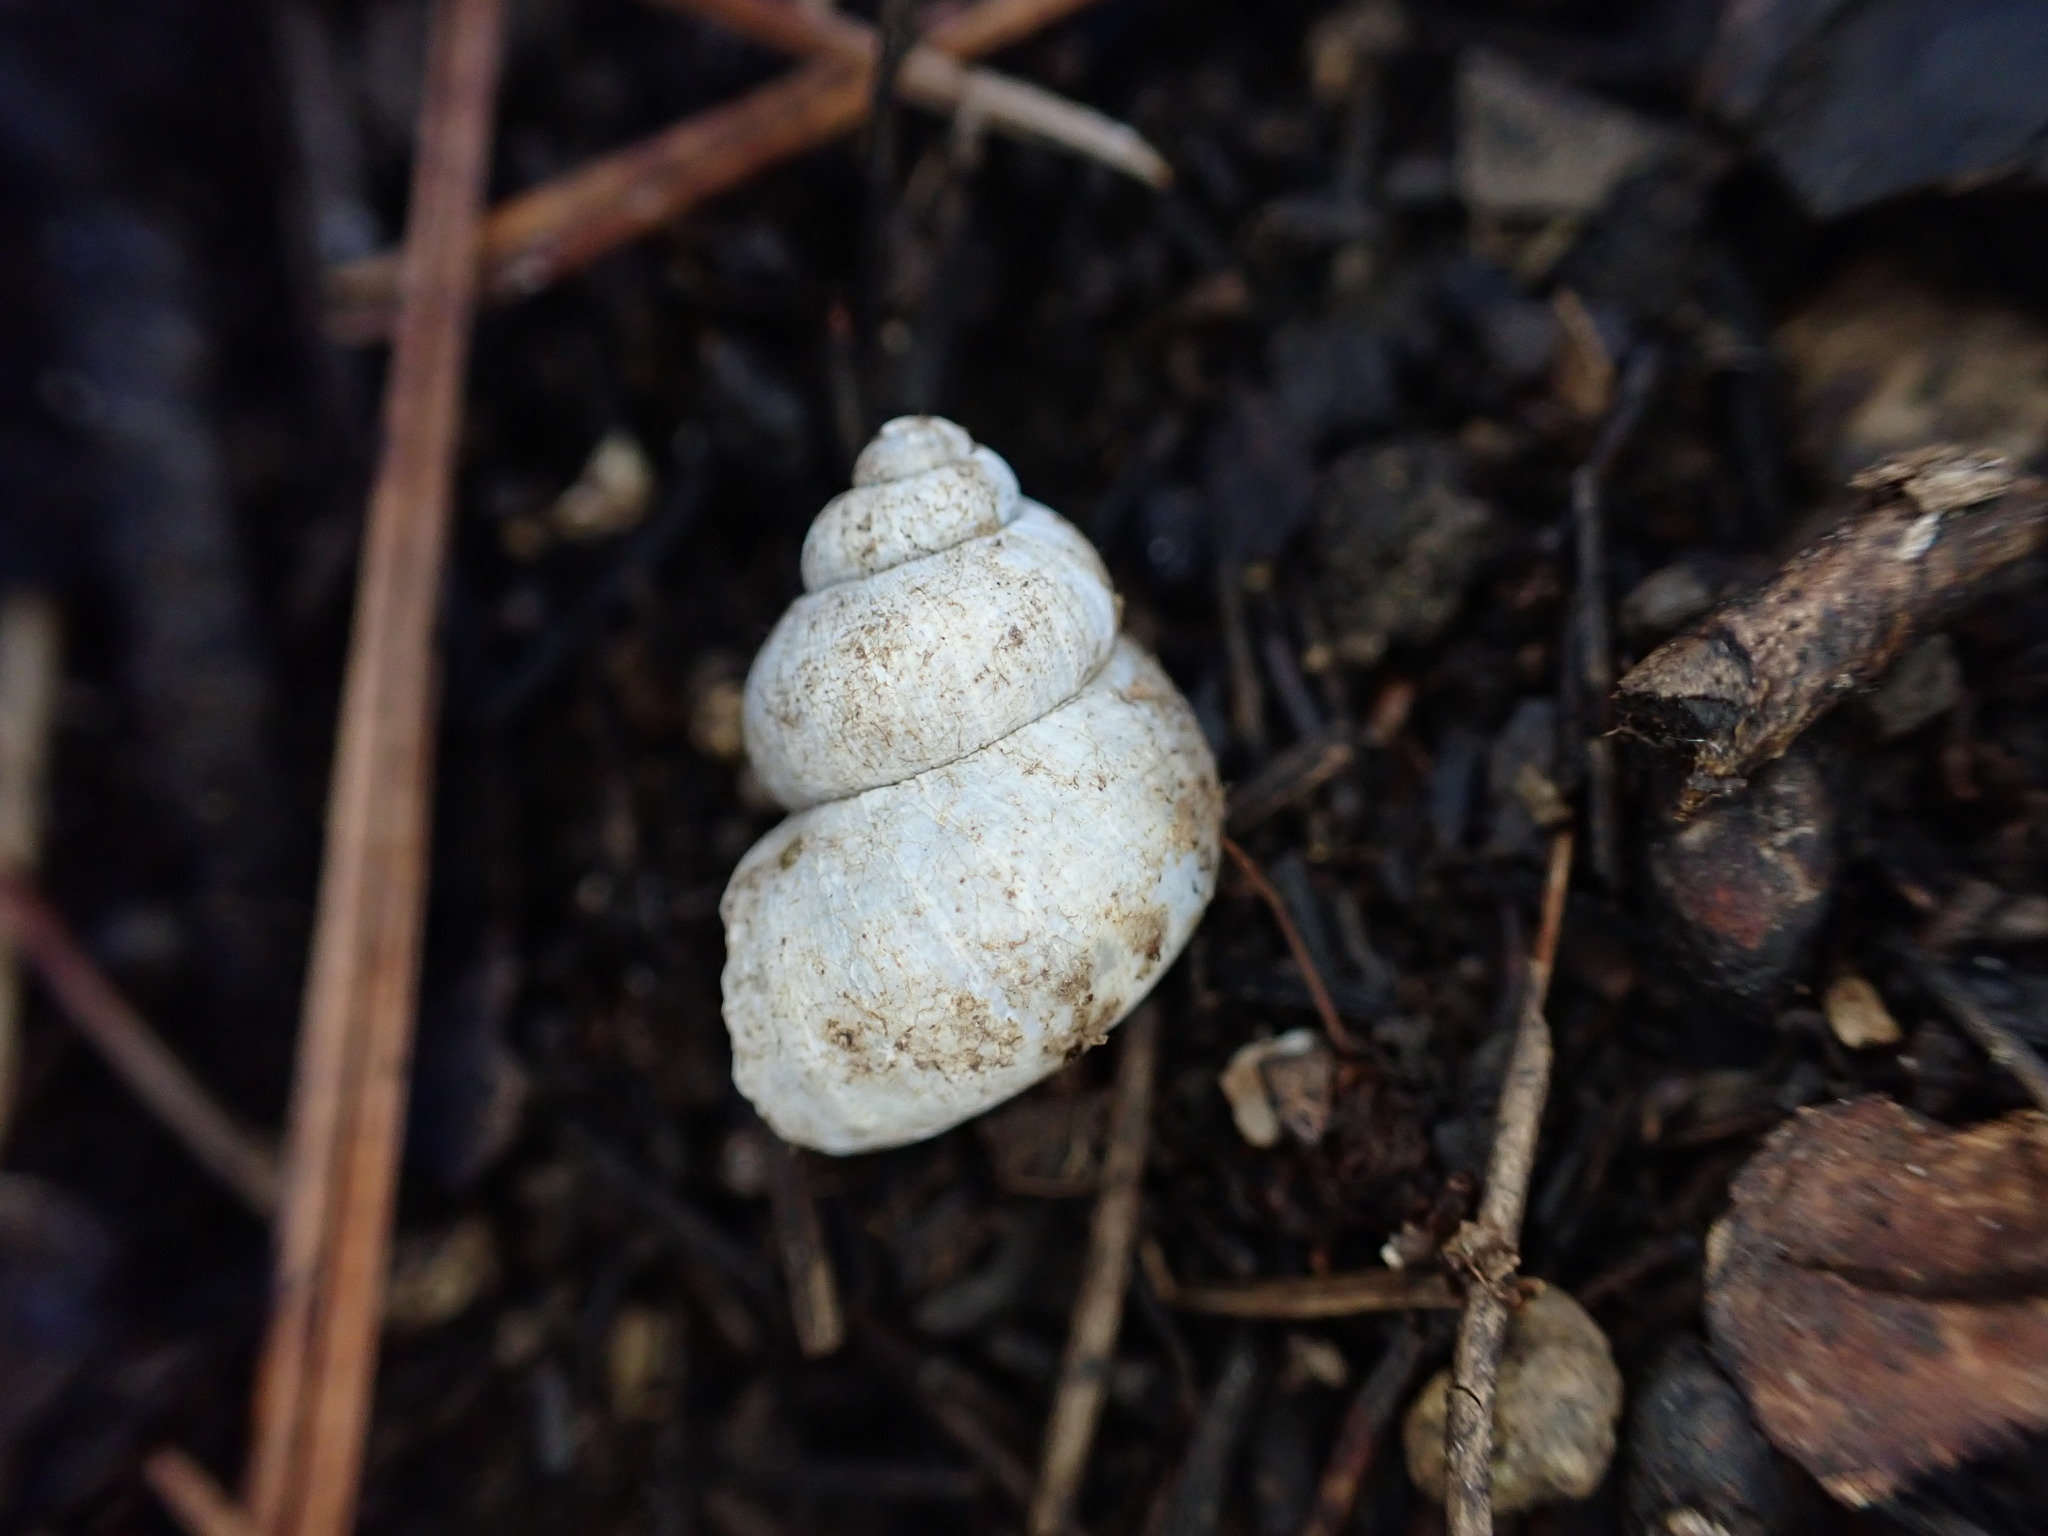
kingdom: Animalia
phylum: Mollusca
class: Gastropoda
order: Littorinimorpha
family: Pomatiidae
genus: Pomatias
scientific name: Pomatias elegans
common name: Red-mouthed snail
